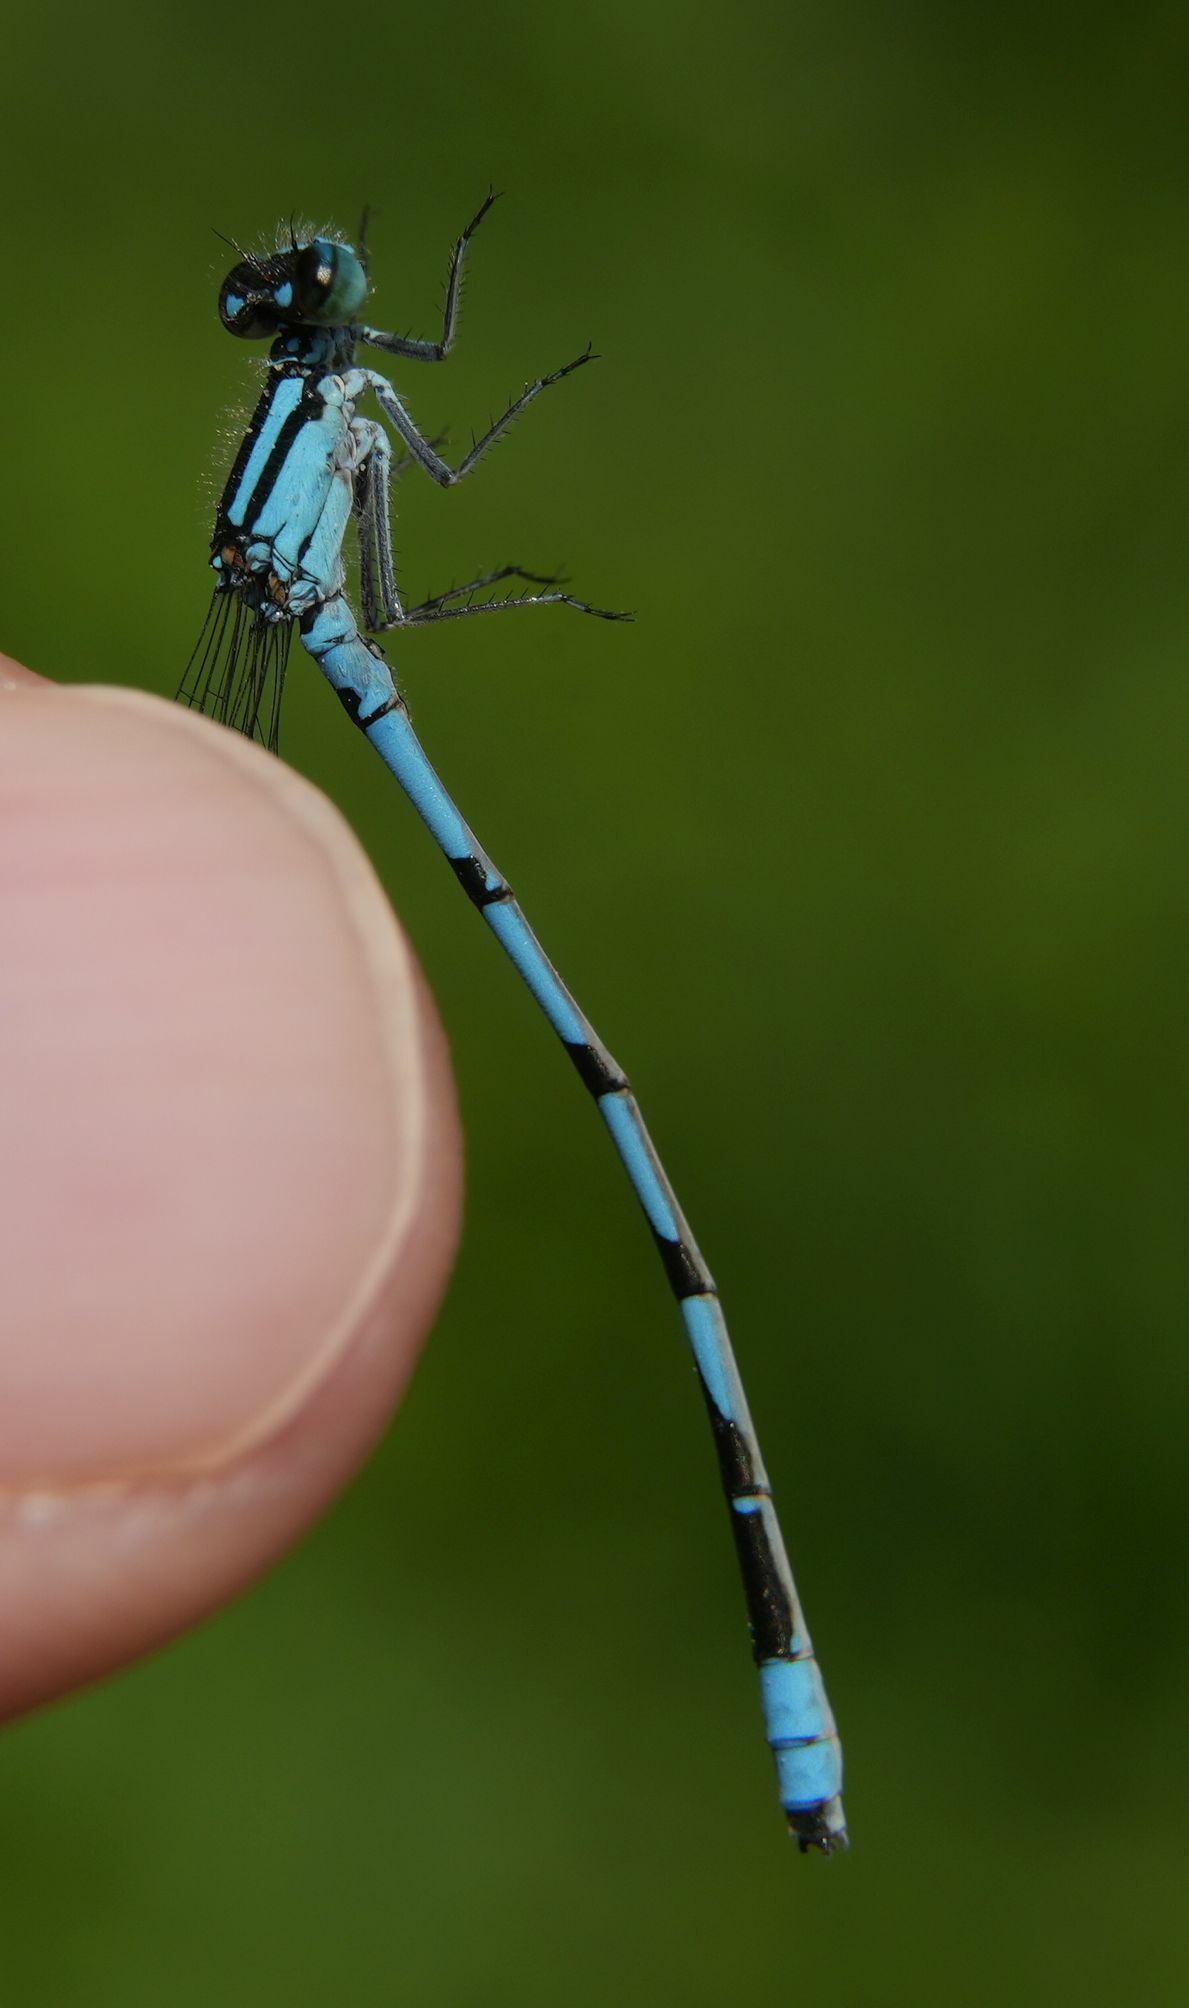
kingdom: Animalia
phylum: Arthropoda
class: Insecta
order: Odonata
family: Coenagrionidae
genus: Enallagma
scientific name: Enallagma ebrium
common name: Marsh bluet
